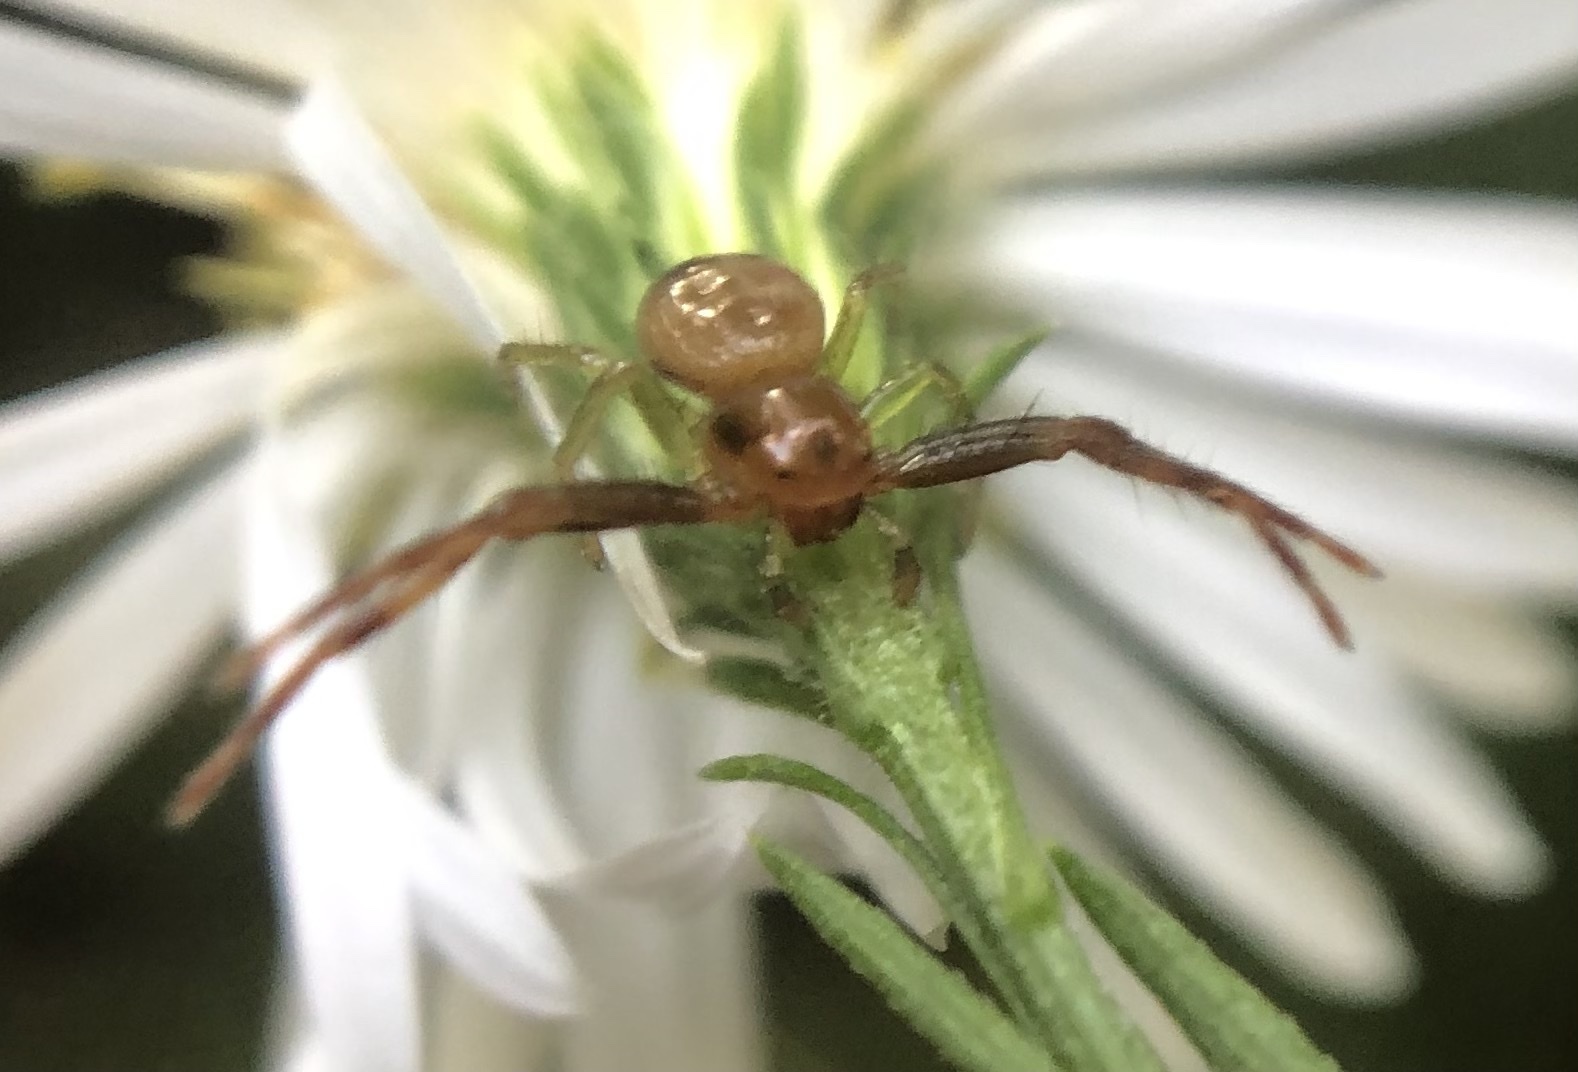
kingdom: Animalia
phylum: Arthropoda
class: Arachnida
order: Araneae
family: Thomisidae
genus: Synema
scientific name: Synema parvulum
